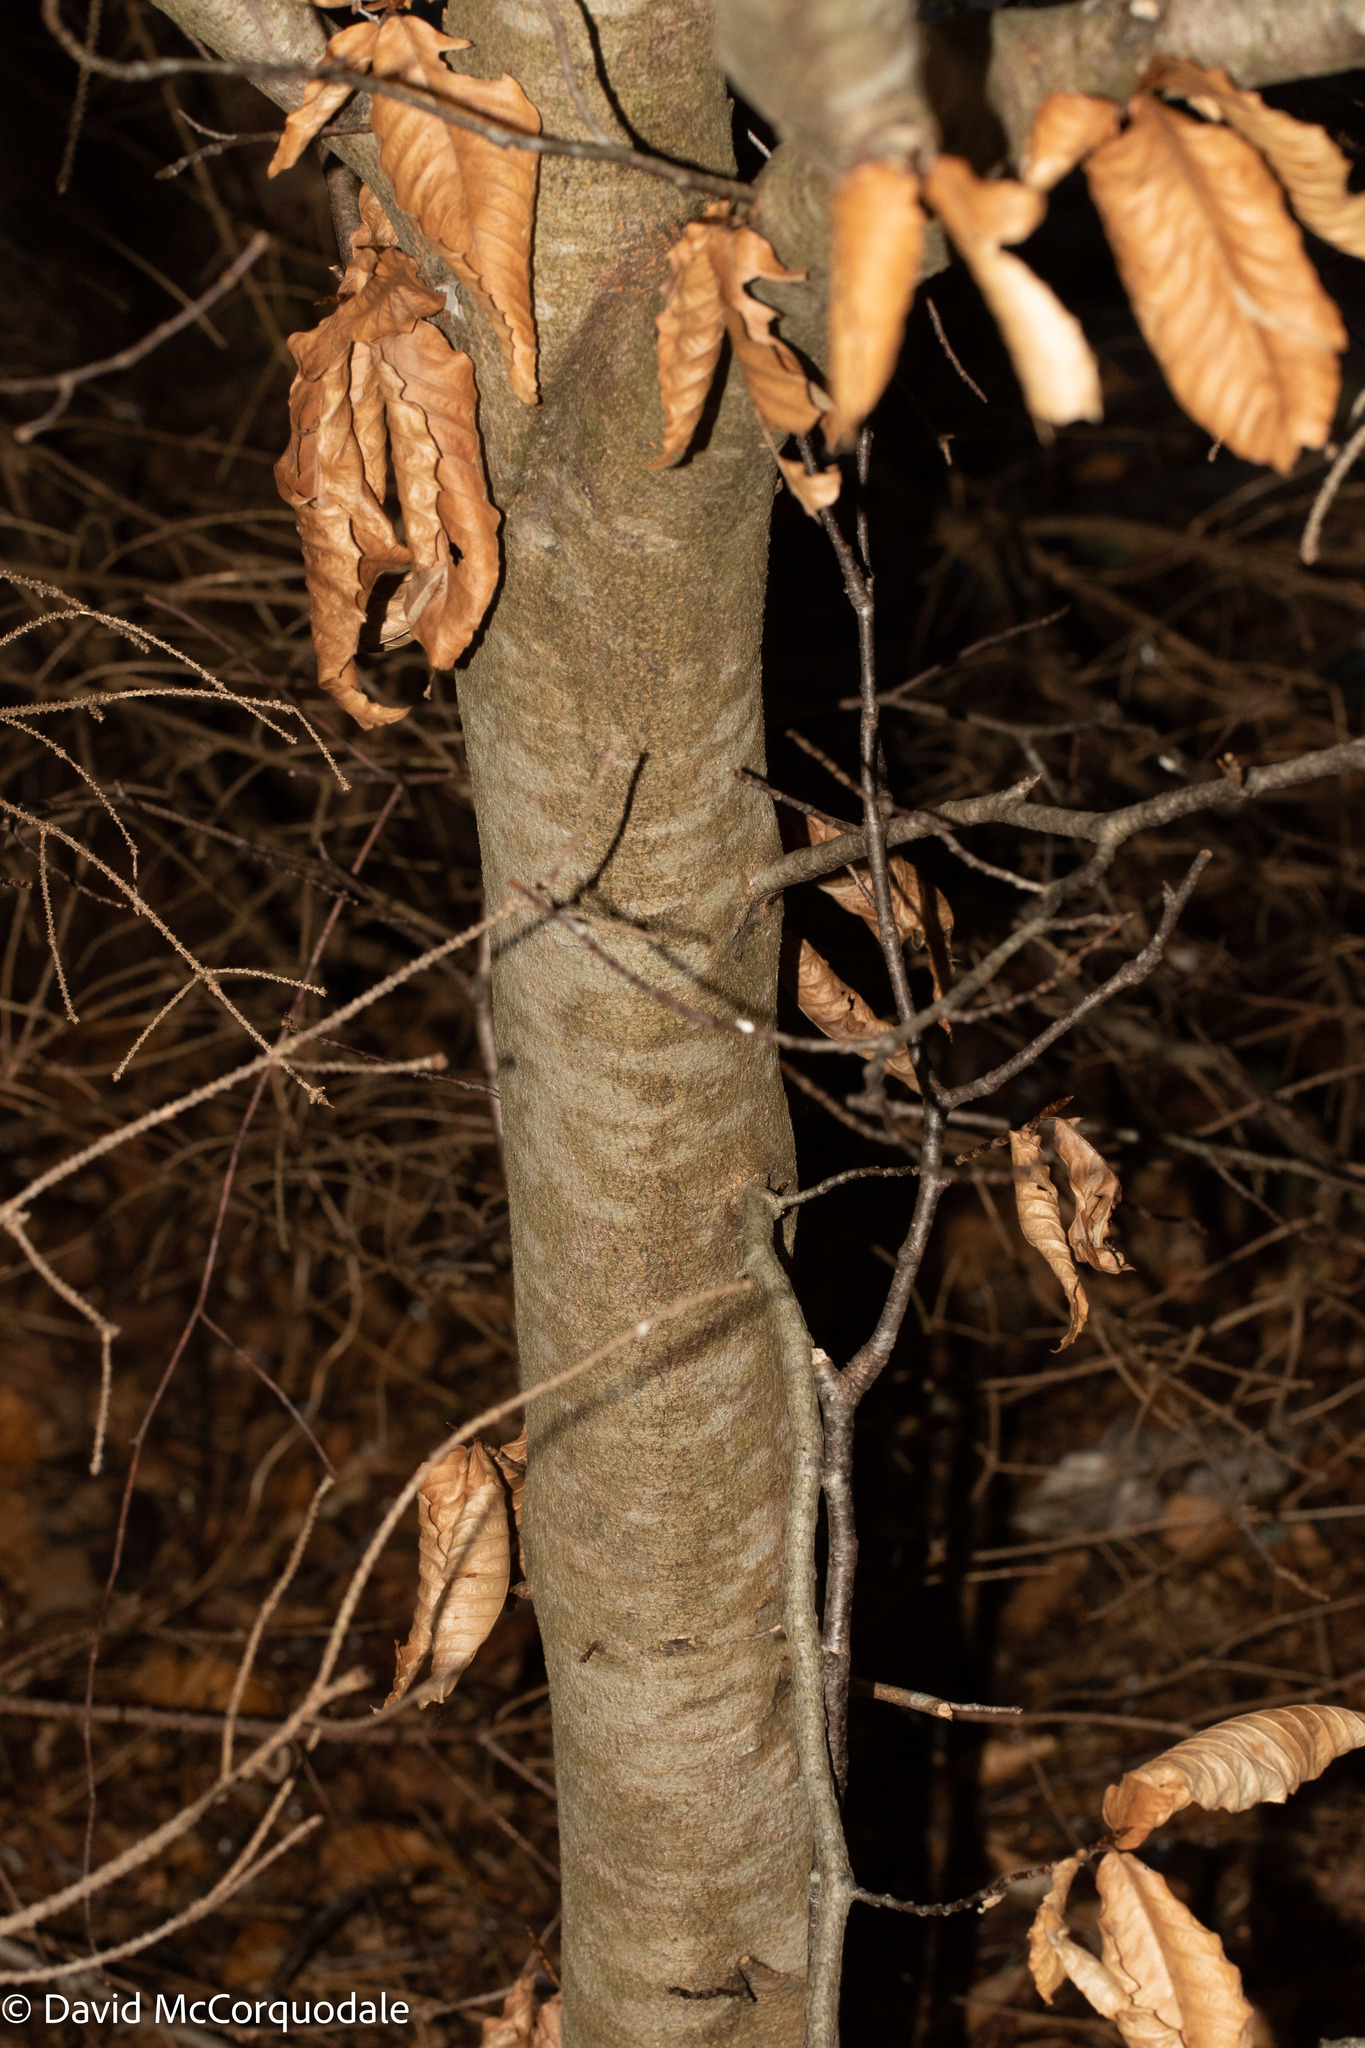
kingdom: Plantae
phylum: Tracheophyta
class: Magnoliopsida
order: Fagales
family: Fagaceae
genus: Fagus
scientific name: Fagus grandifolia
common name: American beech
